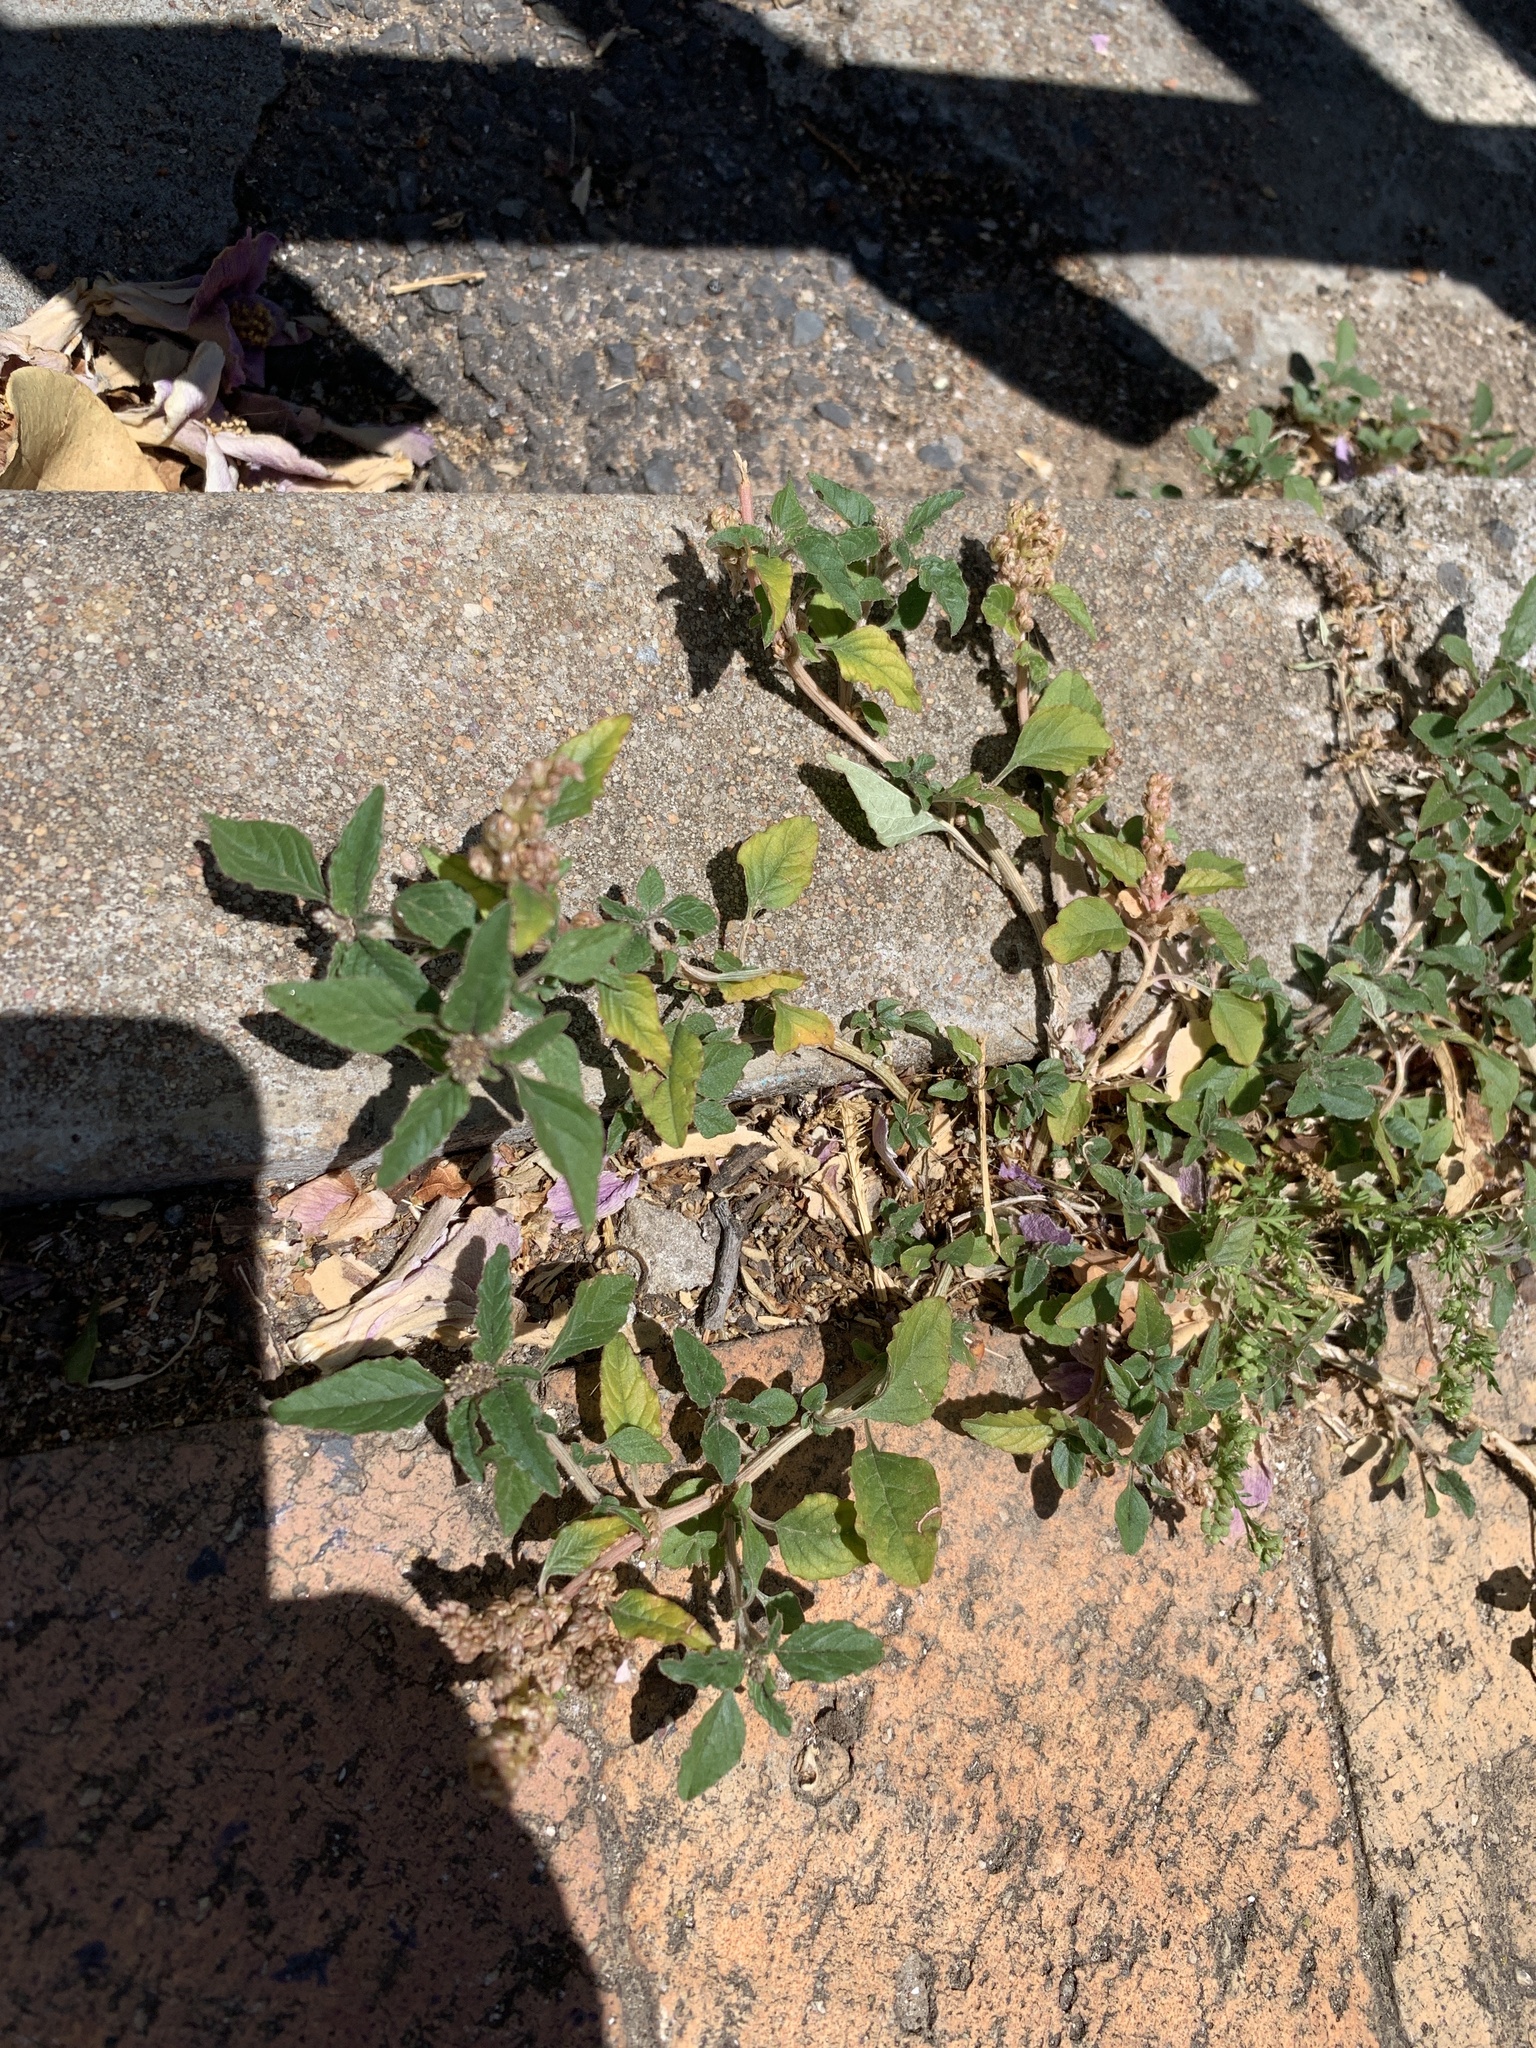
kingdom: Plantae
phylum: Tracheophyta
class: Magnoliopsida
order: Caryophyllales
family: Amaranthaceae
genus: Amaranthus
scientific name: Amaranthus deflexus
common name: Perennial pigweed
